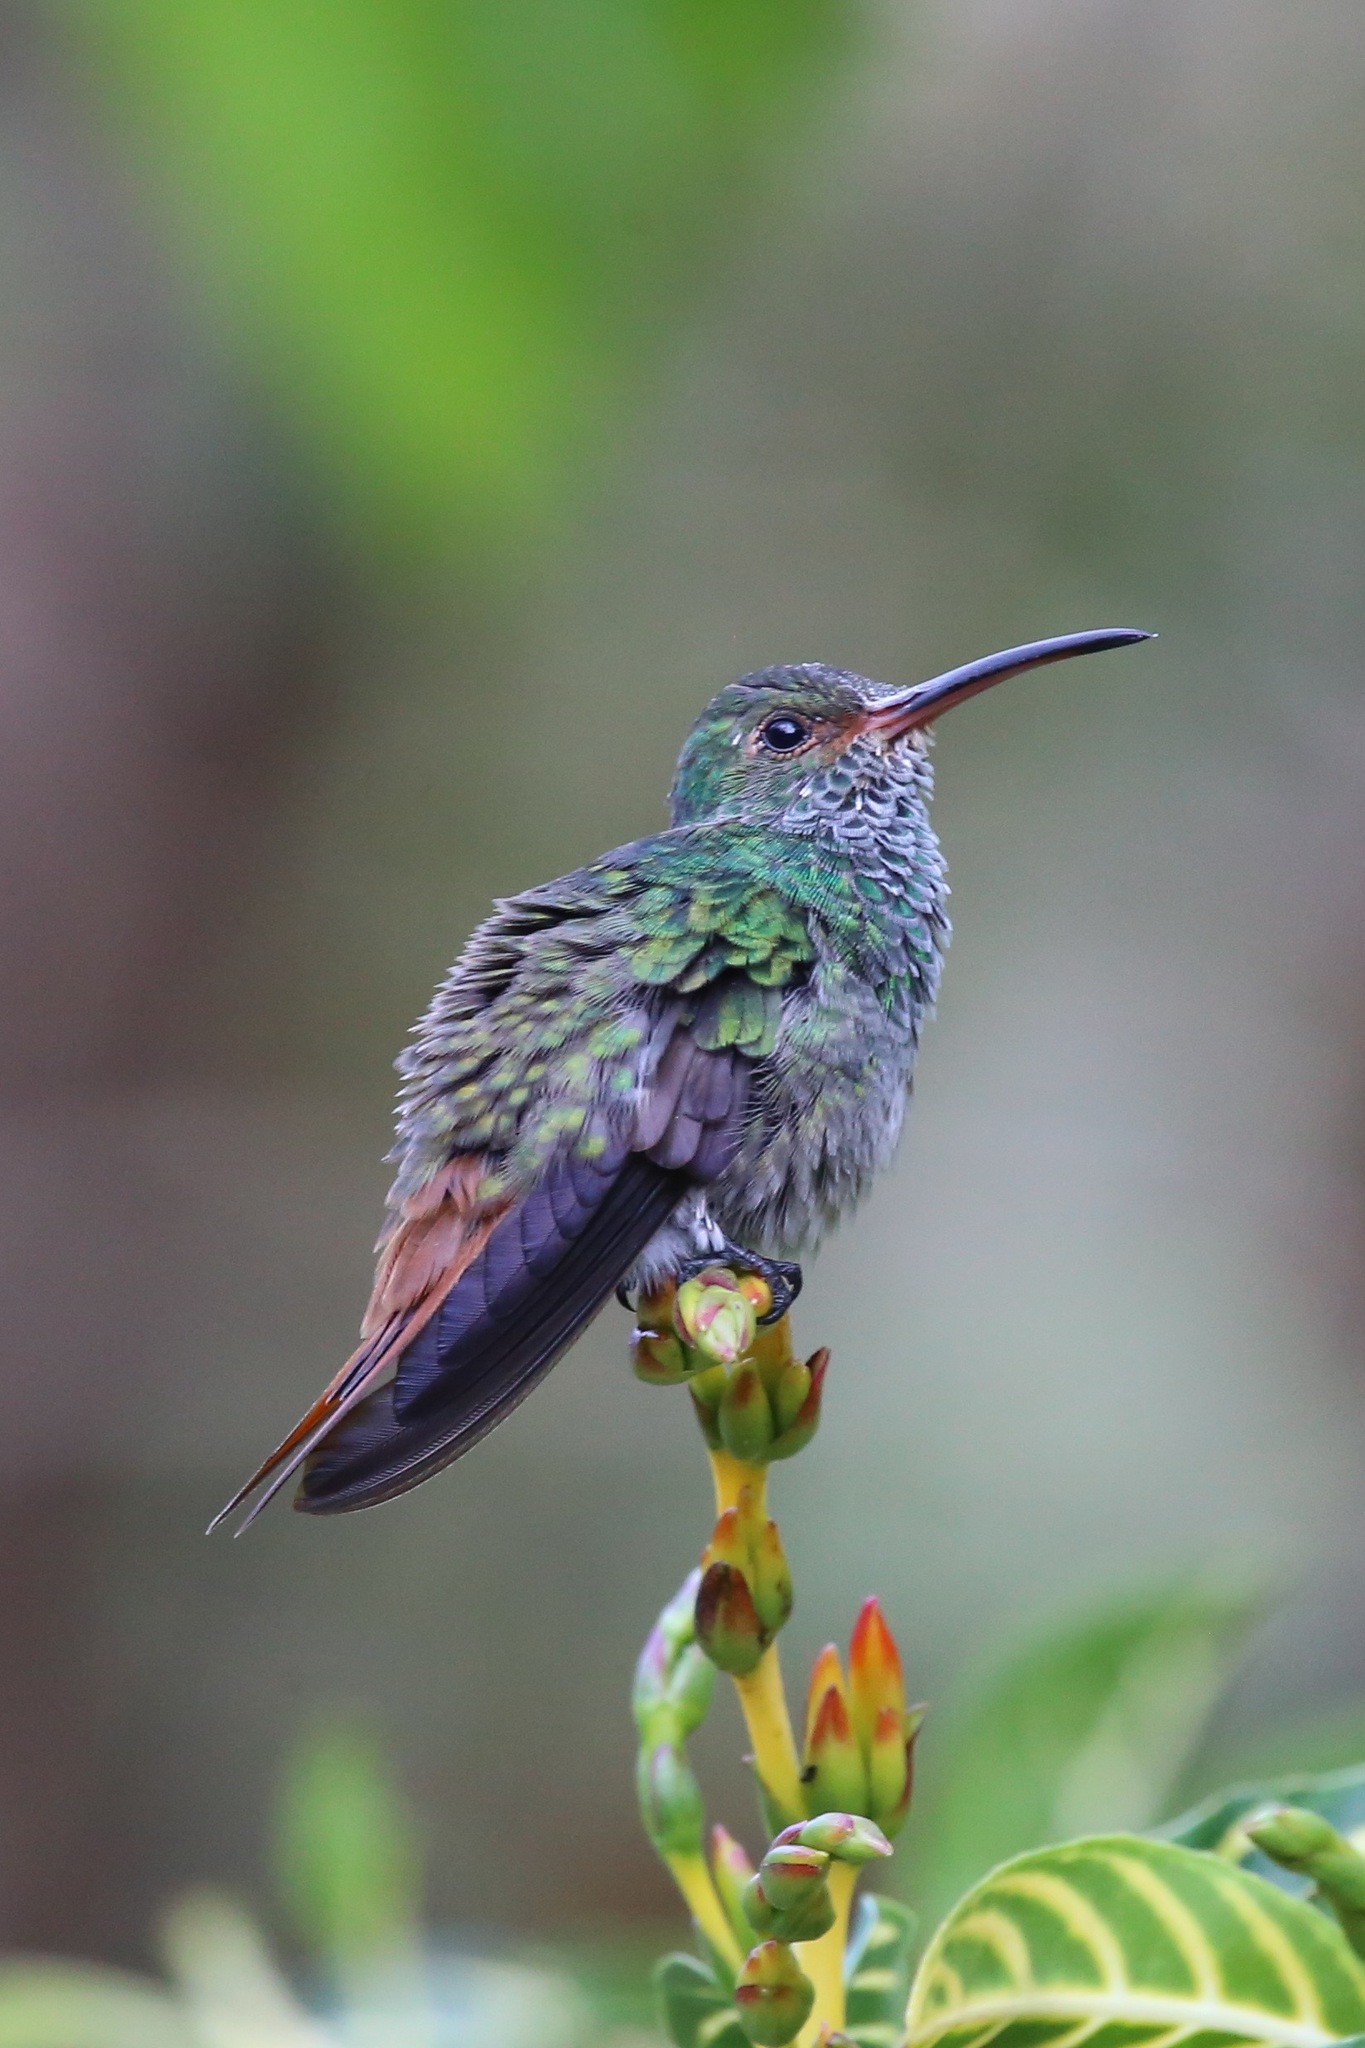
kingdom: Animalia
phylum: Chordata
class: Aves
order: Apodiformes
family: Trochilidae
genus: Amazilia
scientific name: Amazilia tzacatl
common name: Rufous-tailed hummingbird
